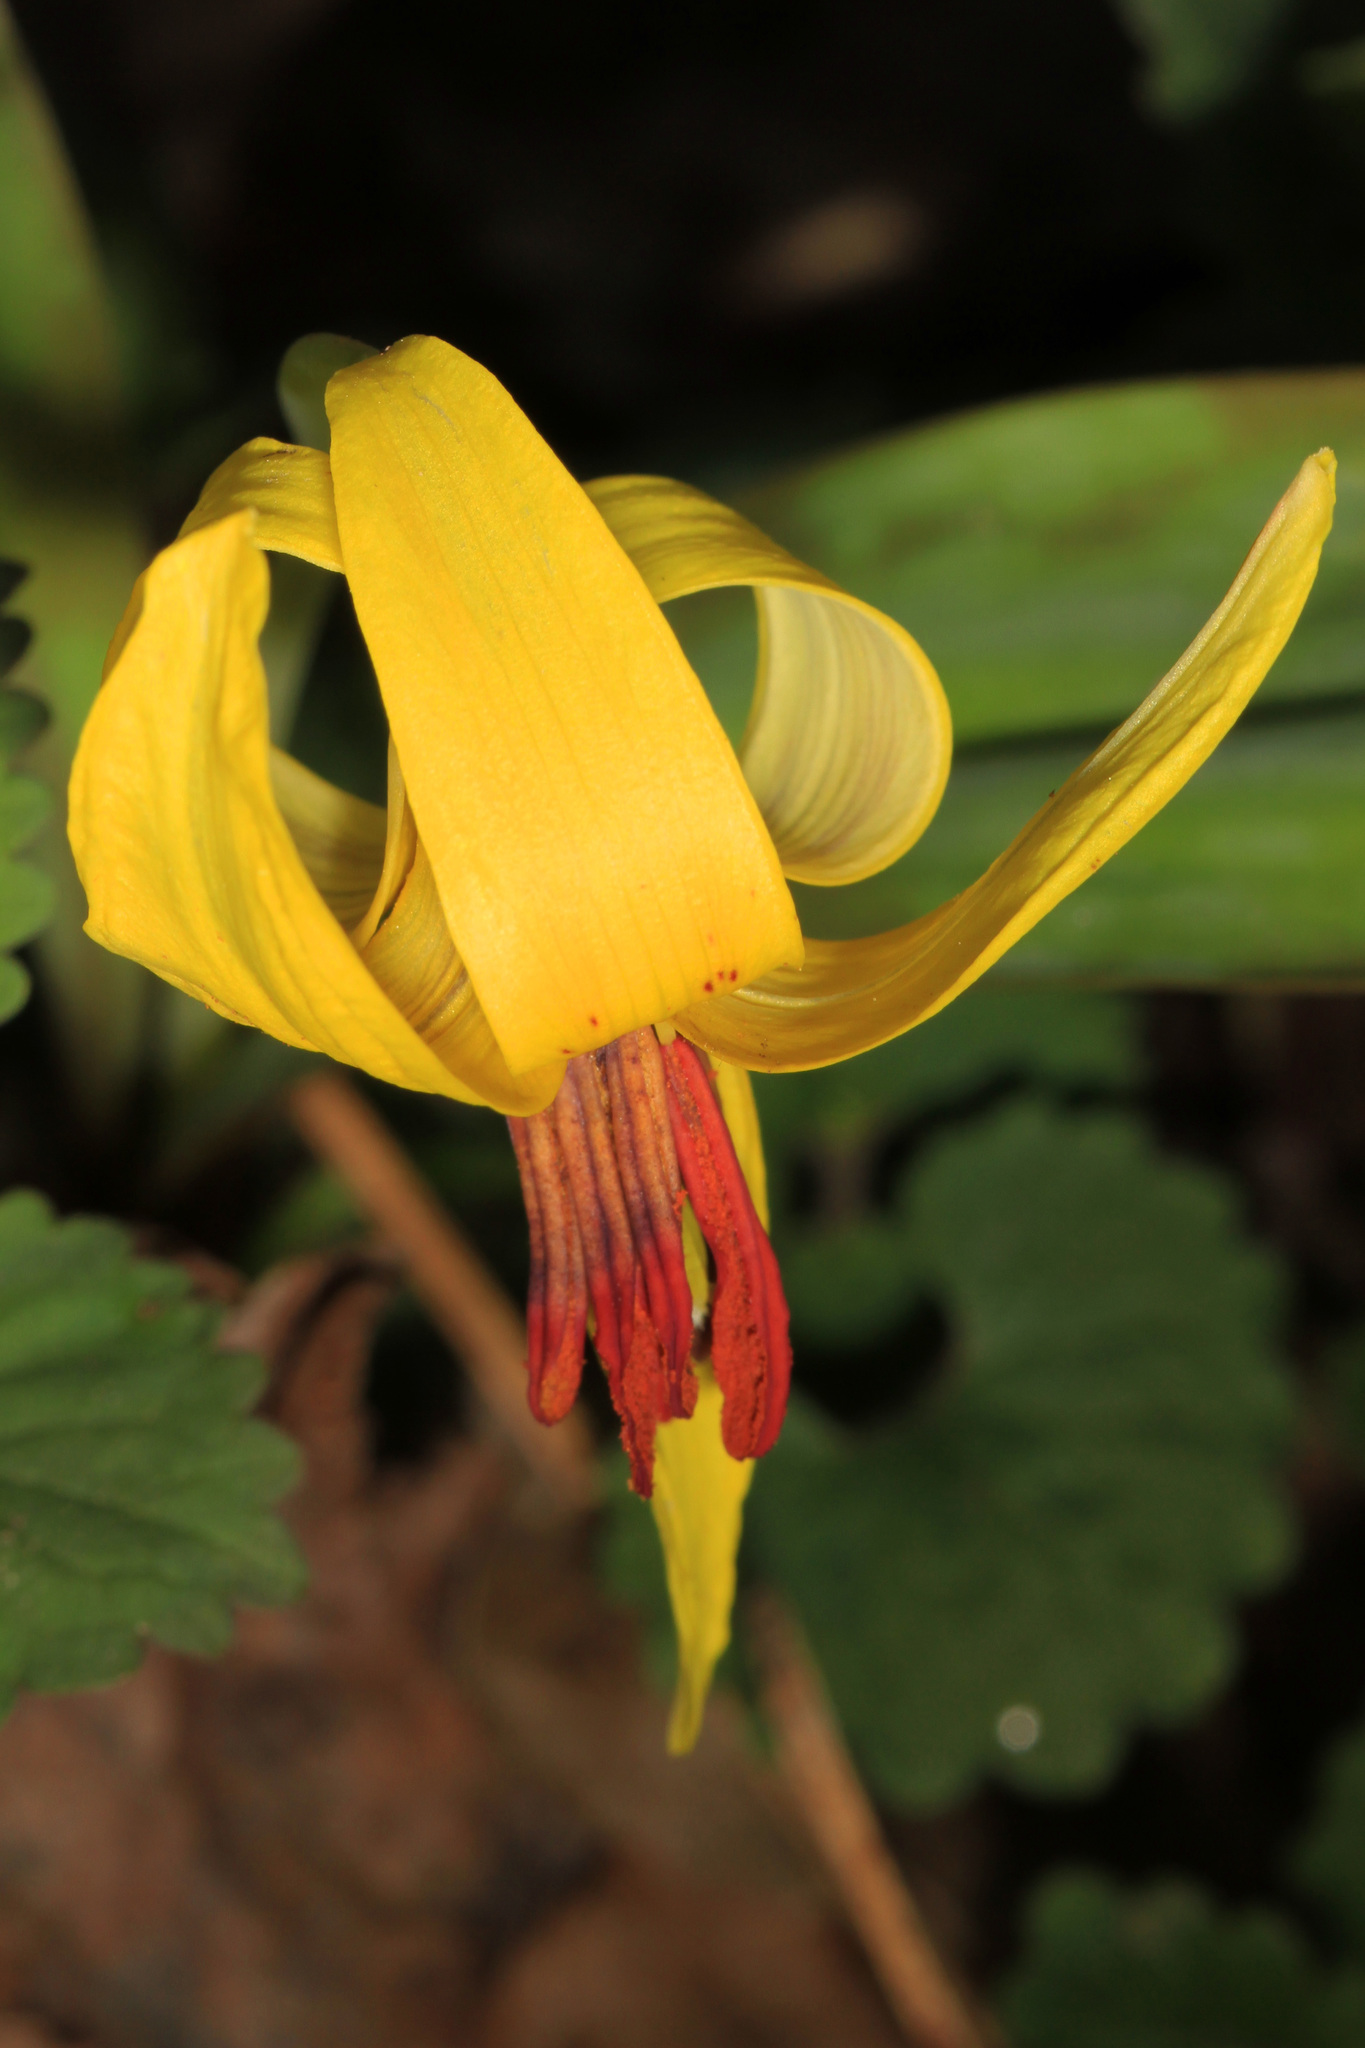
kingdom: Plantae
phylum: Tracheophyta
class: Liliopsida
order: Liliales
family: Liliaceae
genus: Erythronium
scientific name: Erythronium americanum
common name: Yellow adder's-tongue
